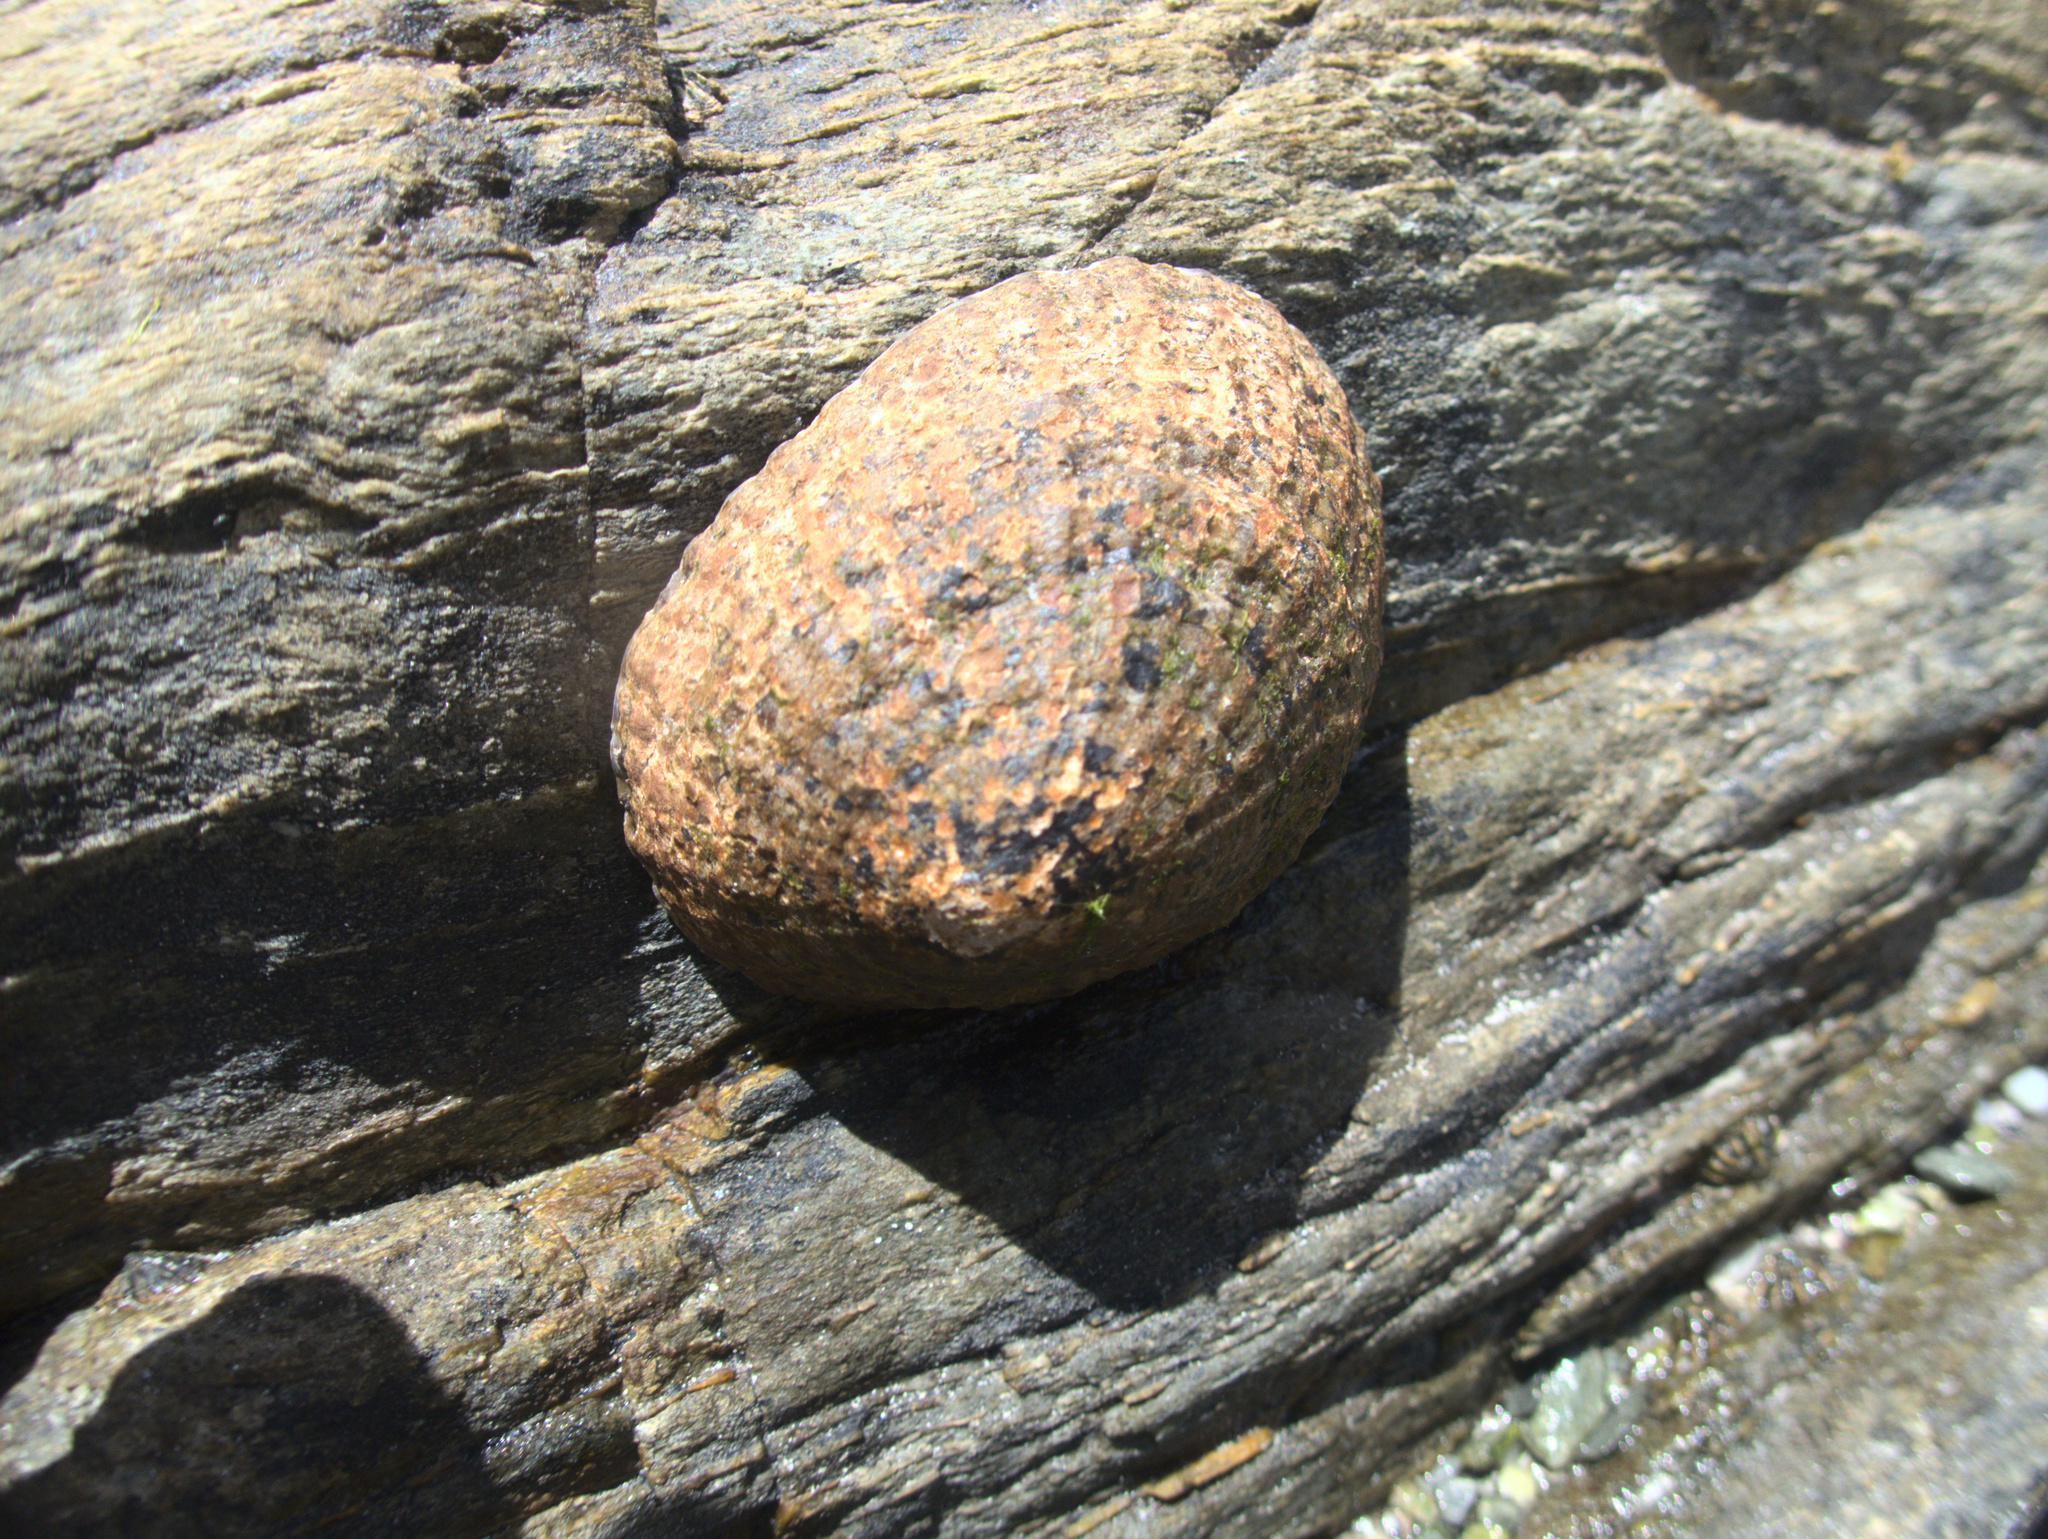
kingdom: Animalia
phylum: Mollusca
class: Gastropoda
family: Nacellidae
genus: Cellana
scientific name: Cellana oliveri
